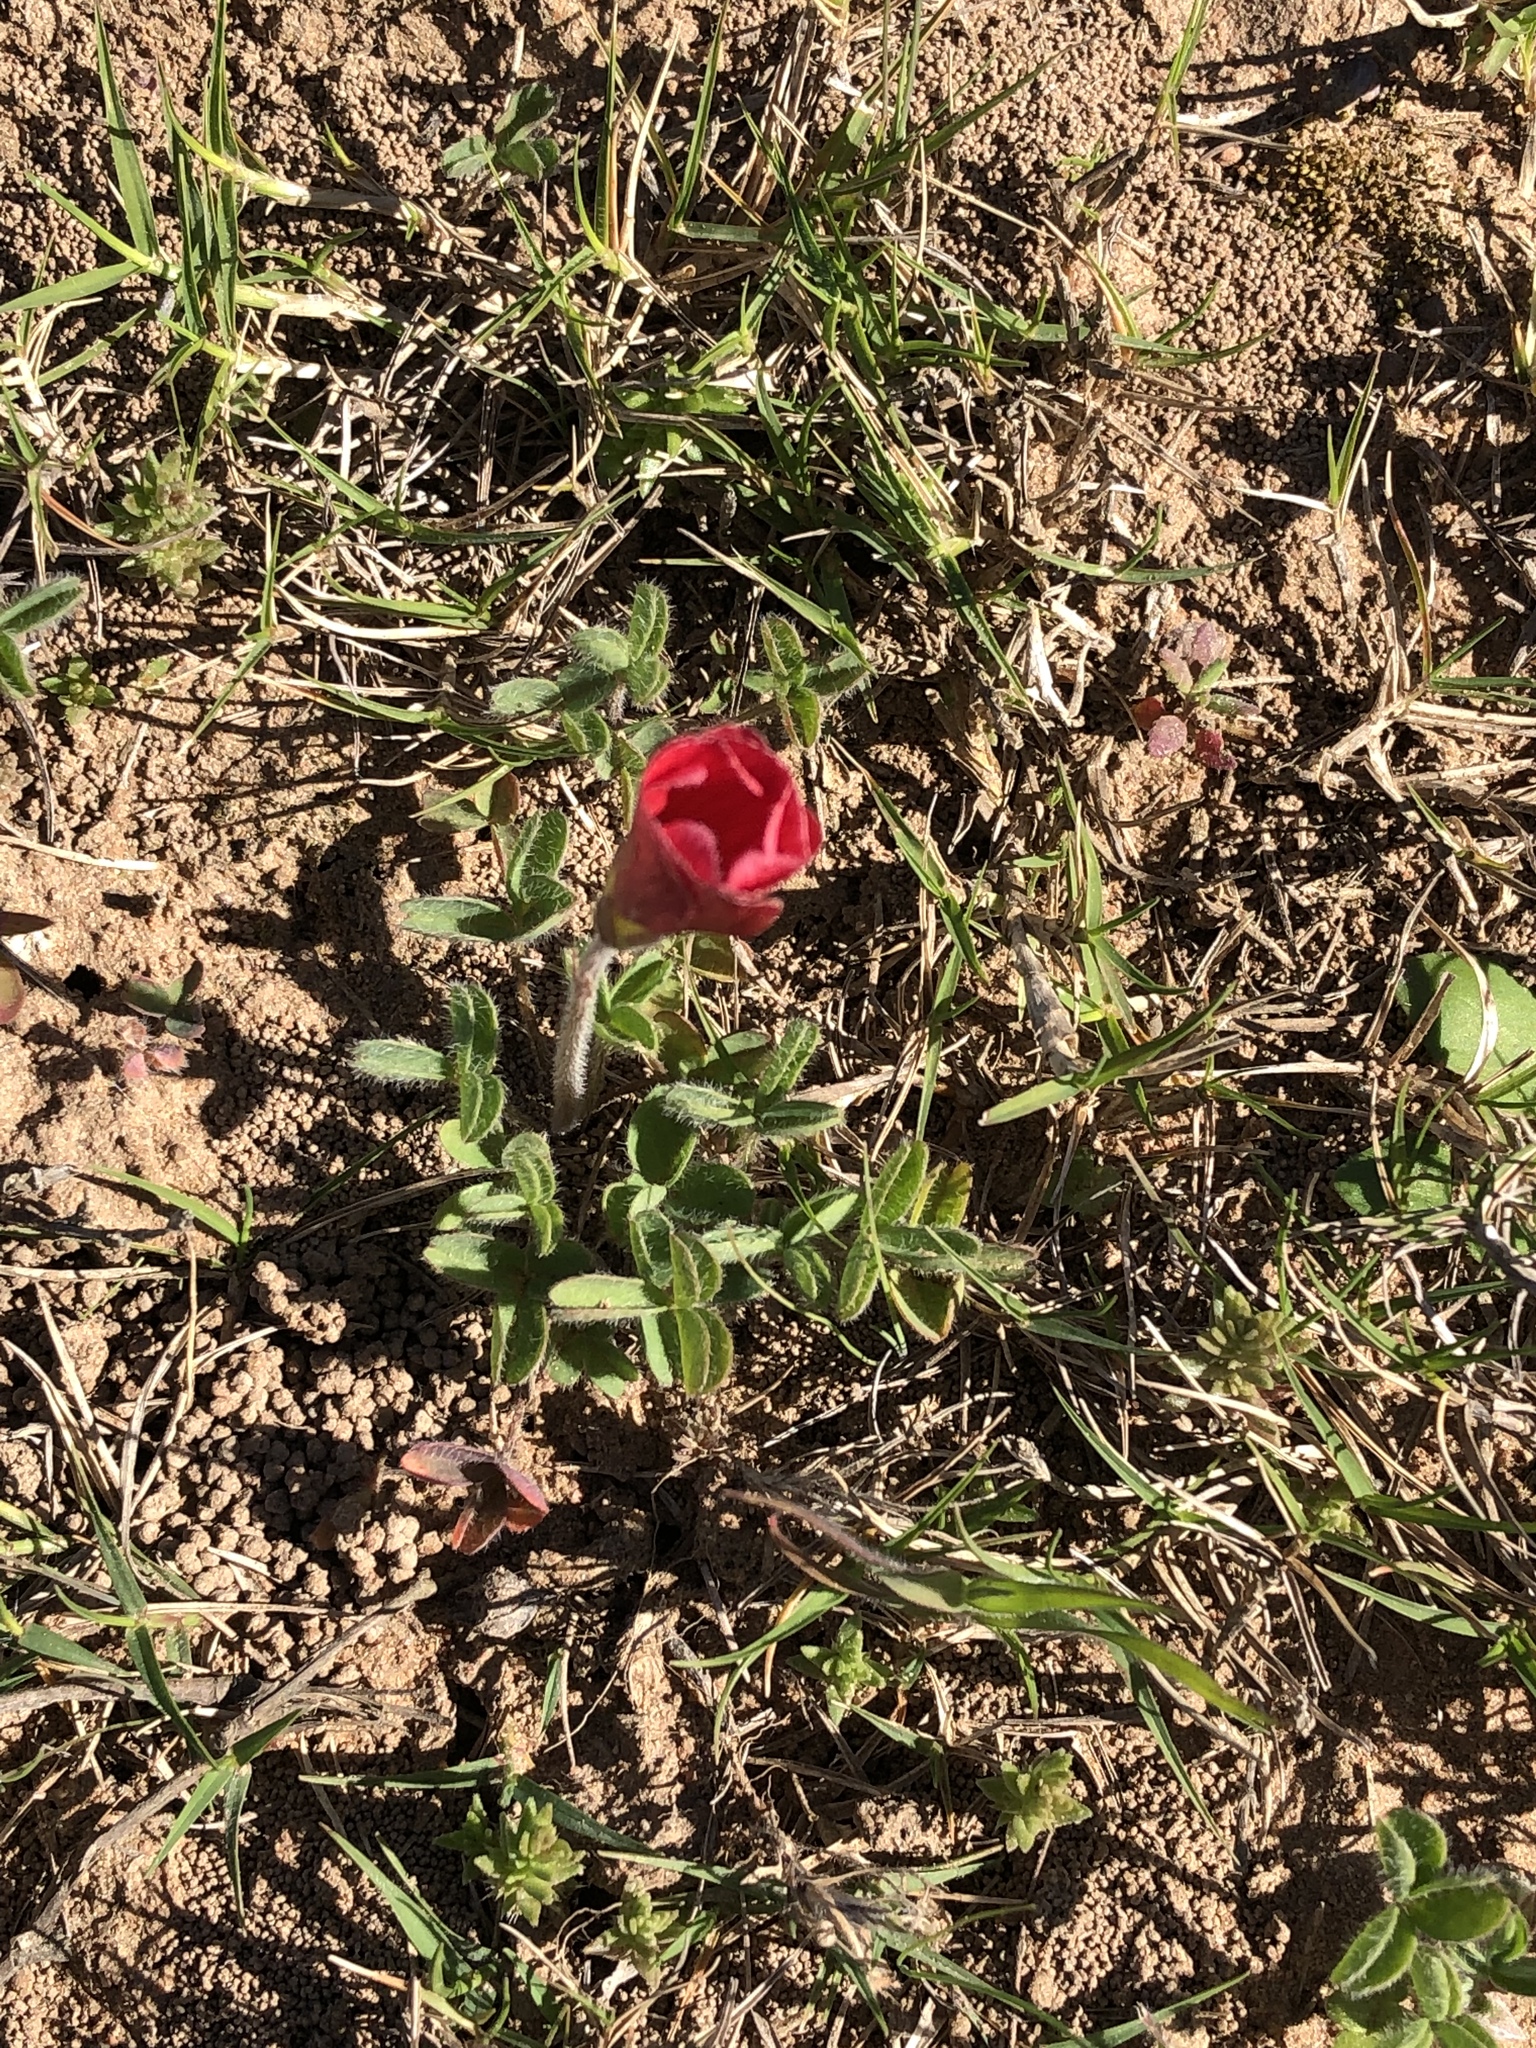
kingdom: Plantae
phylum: Tracheophyta
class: Magnoliopsida
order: Oxalidales
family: Oxalidaceae
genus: Oxalis
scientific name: Oxalis obtusa
